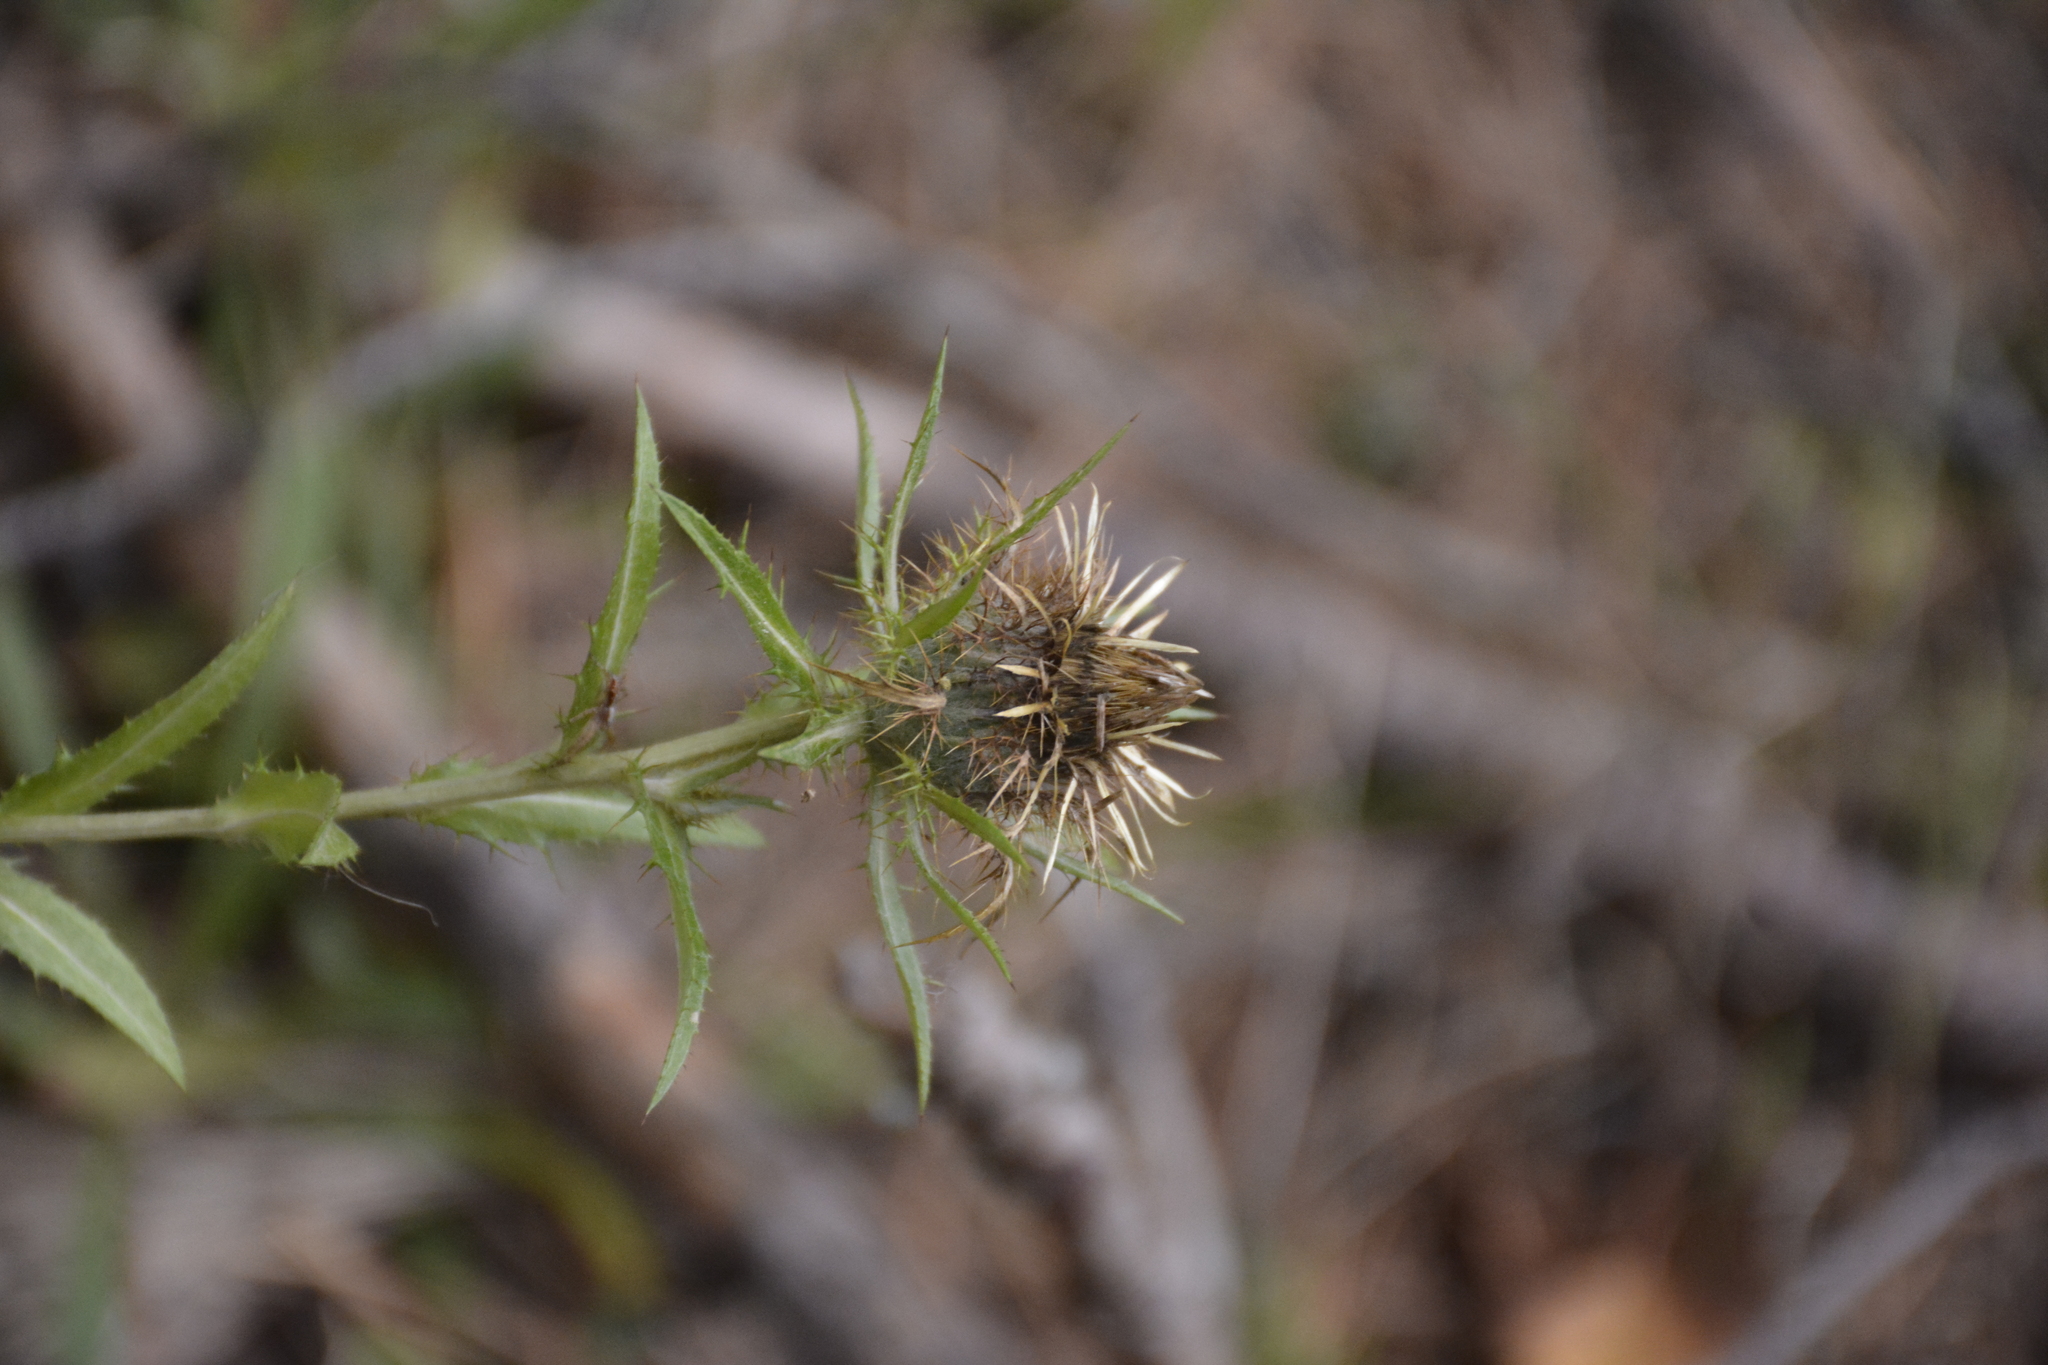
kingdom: Plantae
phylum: Tracheophyta
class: Magnoliopsida
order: Asterales
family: Asteraceae
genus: Carlina
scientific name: Carlina biebersteinii
